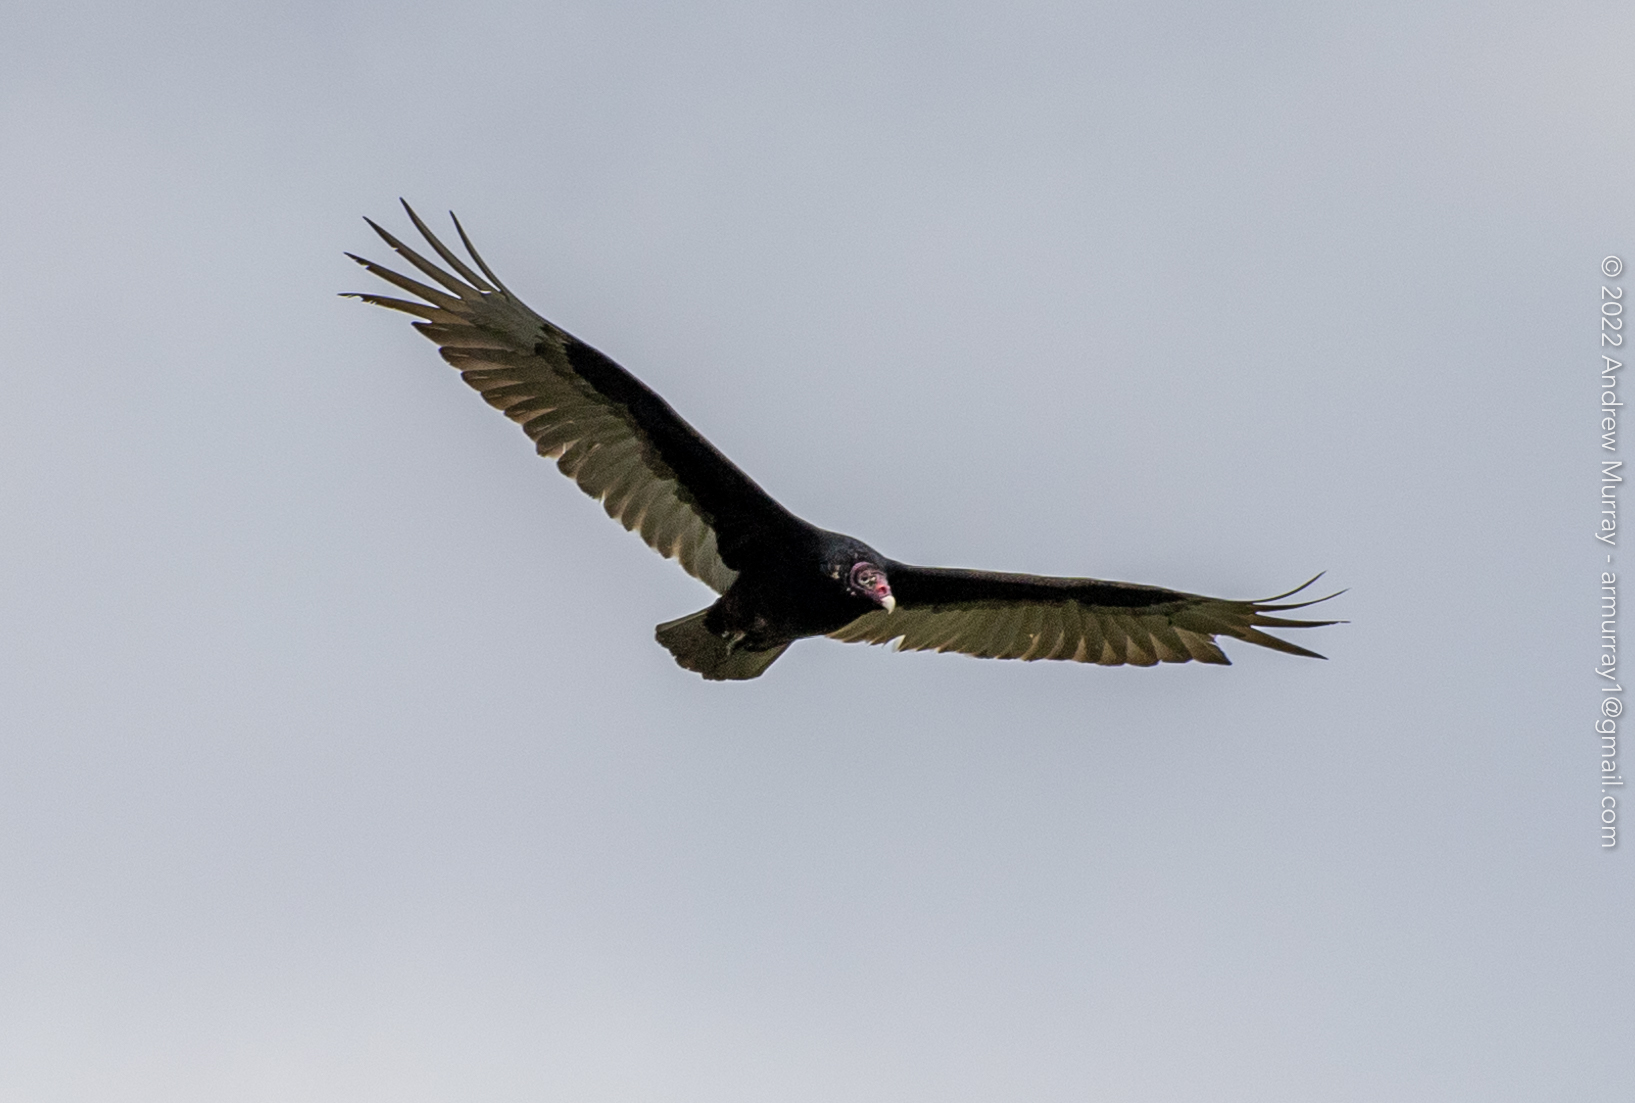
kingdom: Animalia
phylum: Chordata
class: Aves
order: Accipitriformes
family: Cathartidae
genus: Cathartes
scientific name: Cathartes aura
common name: Turkey vulture
